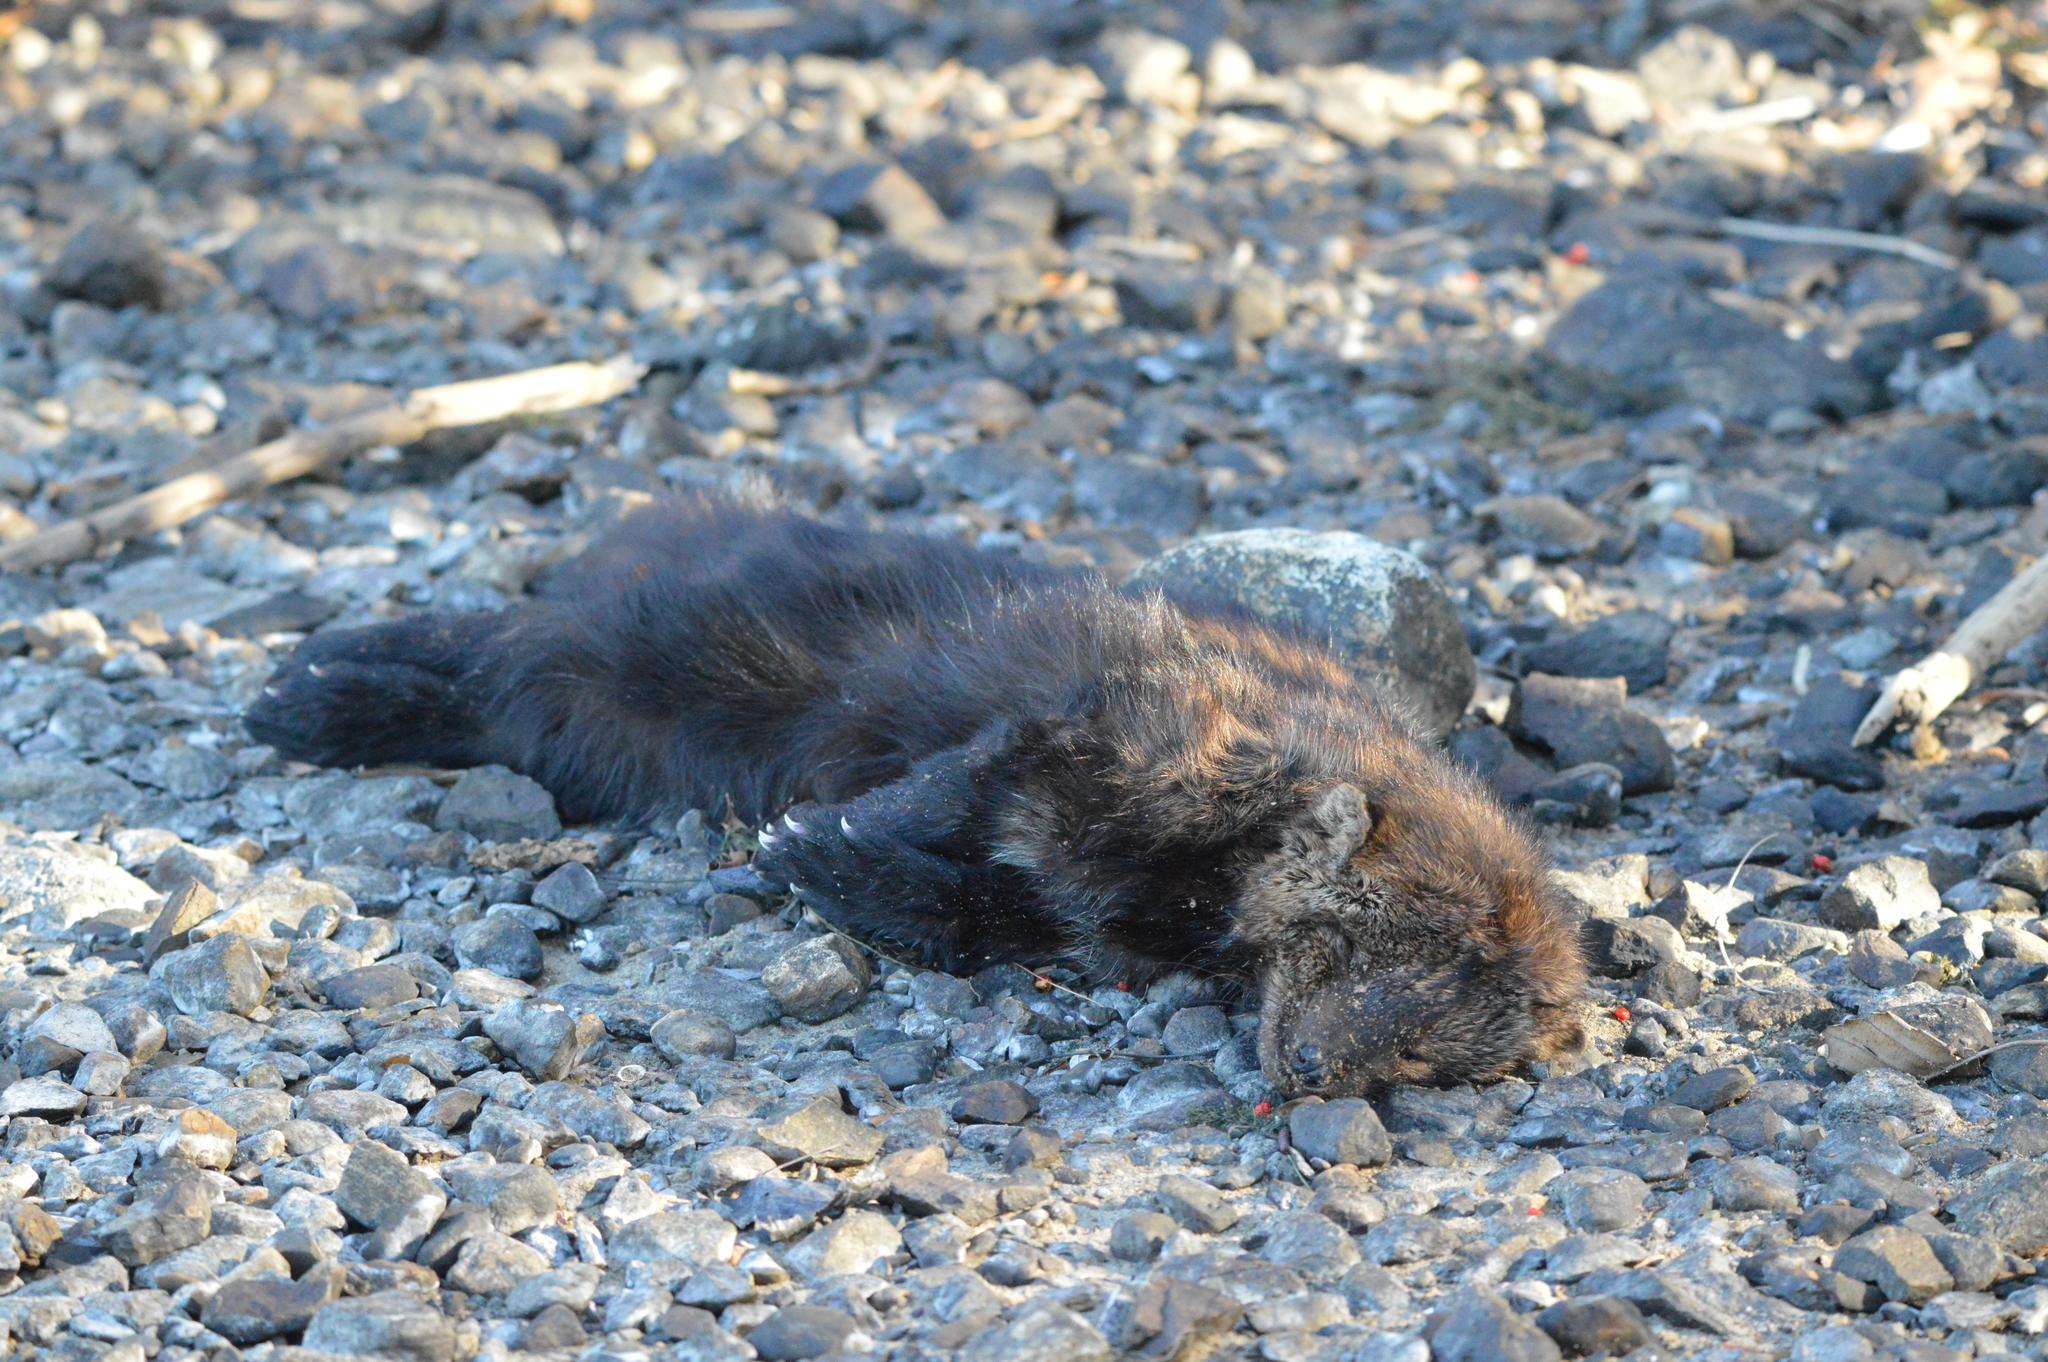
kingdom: Animalia
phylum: Chordata
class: Mammalia
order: Carnivora
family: Mustelidae
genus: Pekania
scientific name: Pekania pennanti
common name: Fisher
